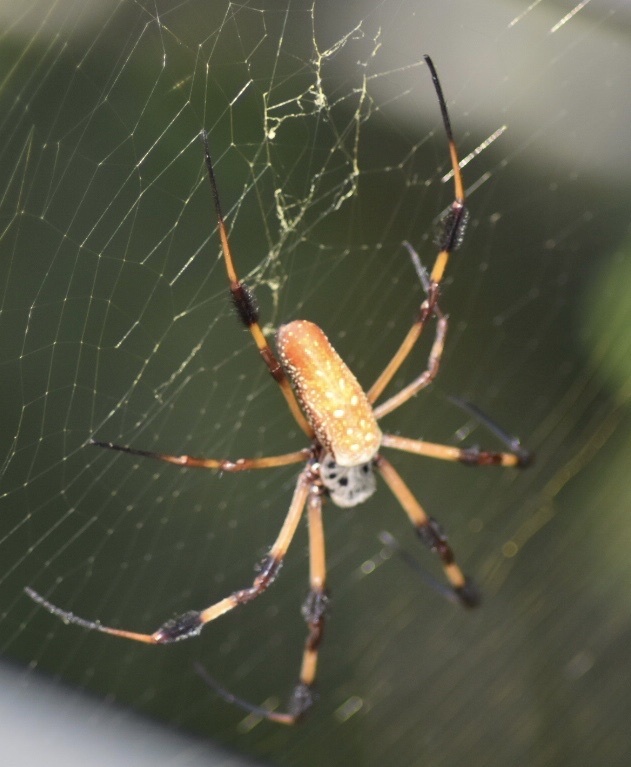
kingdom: Animalia
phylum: Arthropoda
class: Arachnida
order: Araneae
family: Araneidae
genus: Trichonephila
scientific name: Trichonephila clavipes
